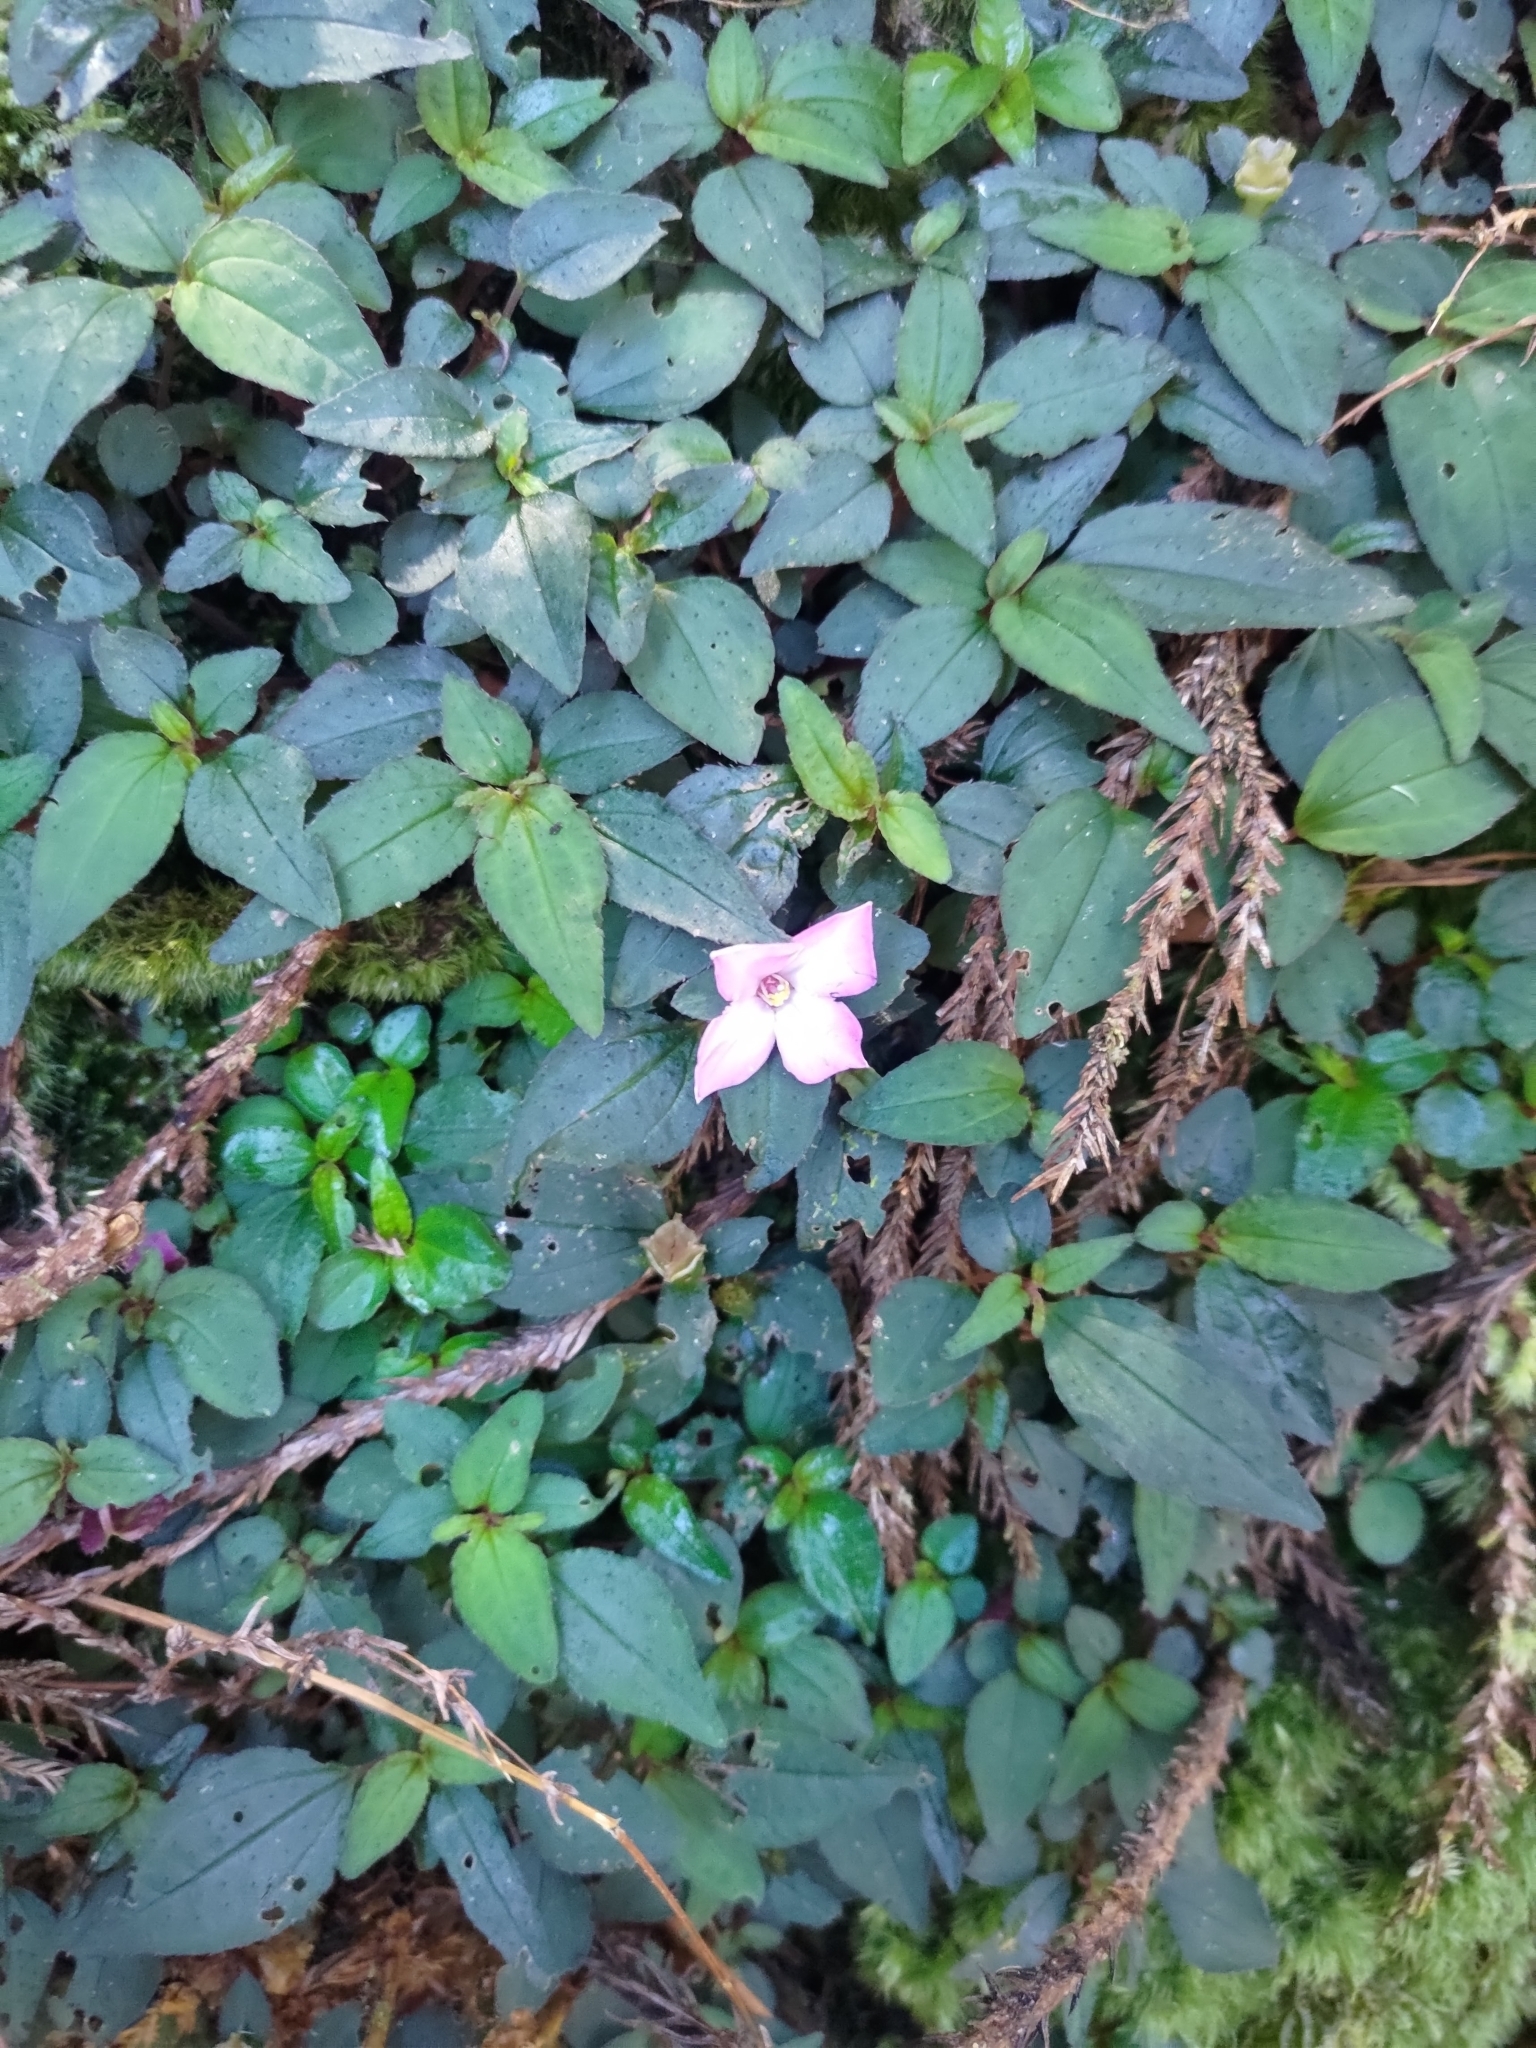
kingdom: Plantae
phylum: Tracheophyta
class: Magnoliopsida
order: Myrtales
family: Melastomataceae
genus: Sarcopyramis
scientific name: Sarcopyramis bodinieri
